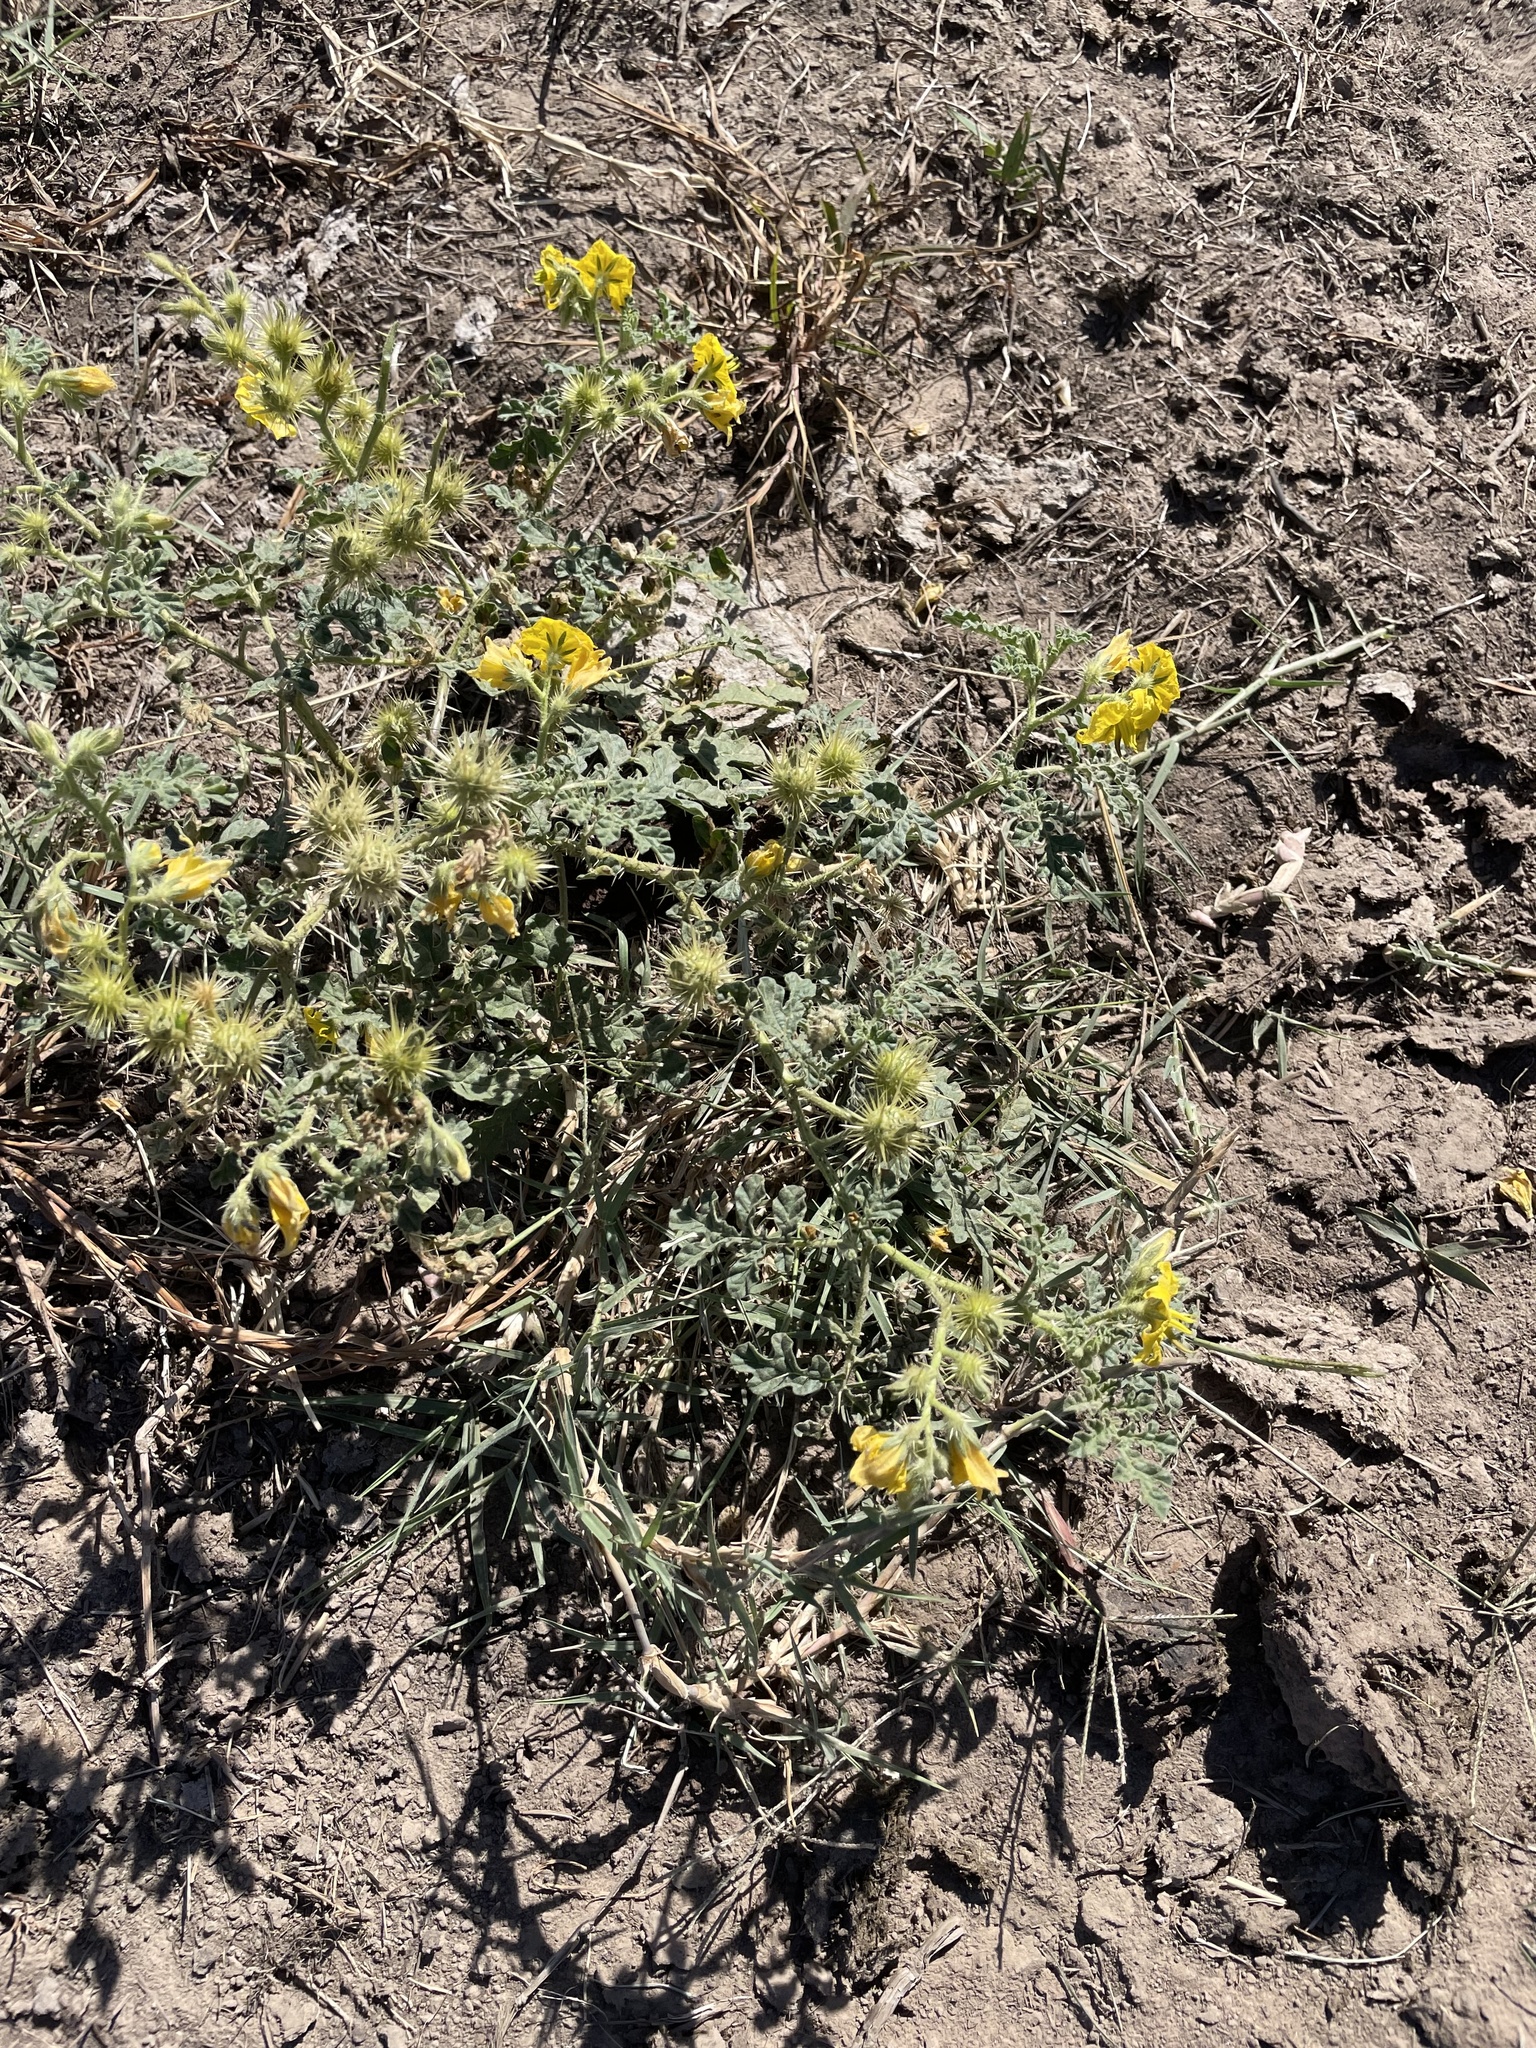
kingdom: Plantae
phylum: Tracheophyta
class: Magnoliopsida
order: Solanales
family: Solanaceae
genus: Solanum
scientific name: Solanum angustifolium
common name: Buffalobur nightshade
